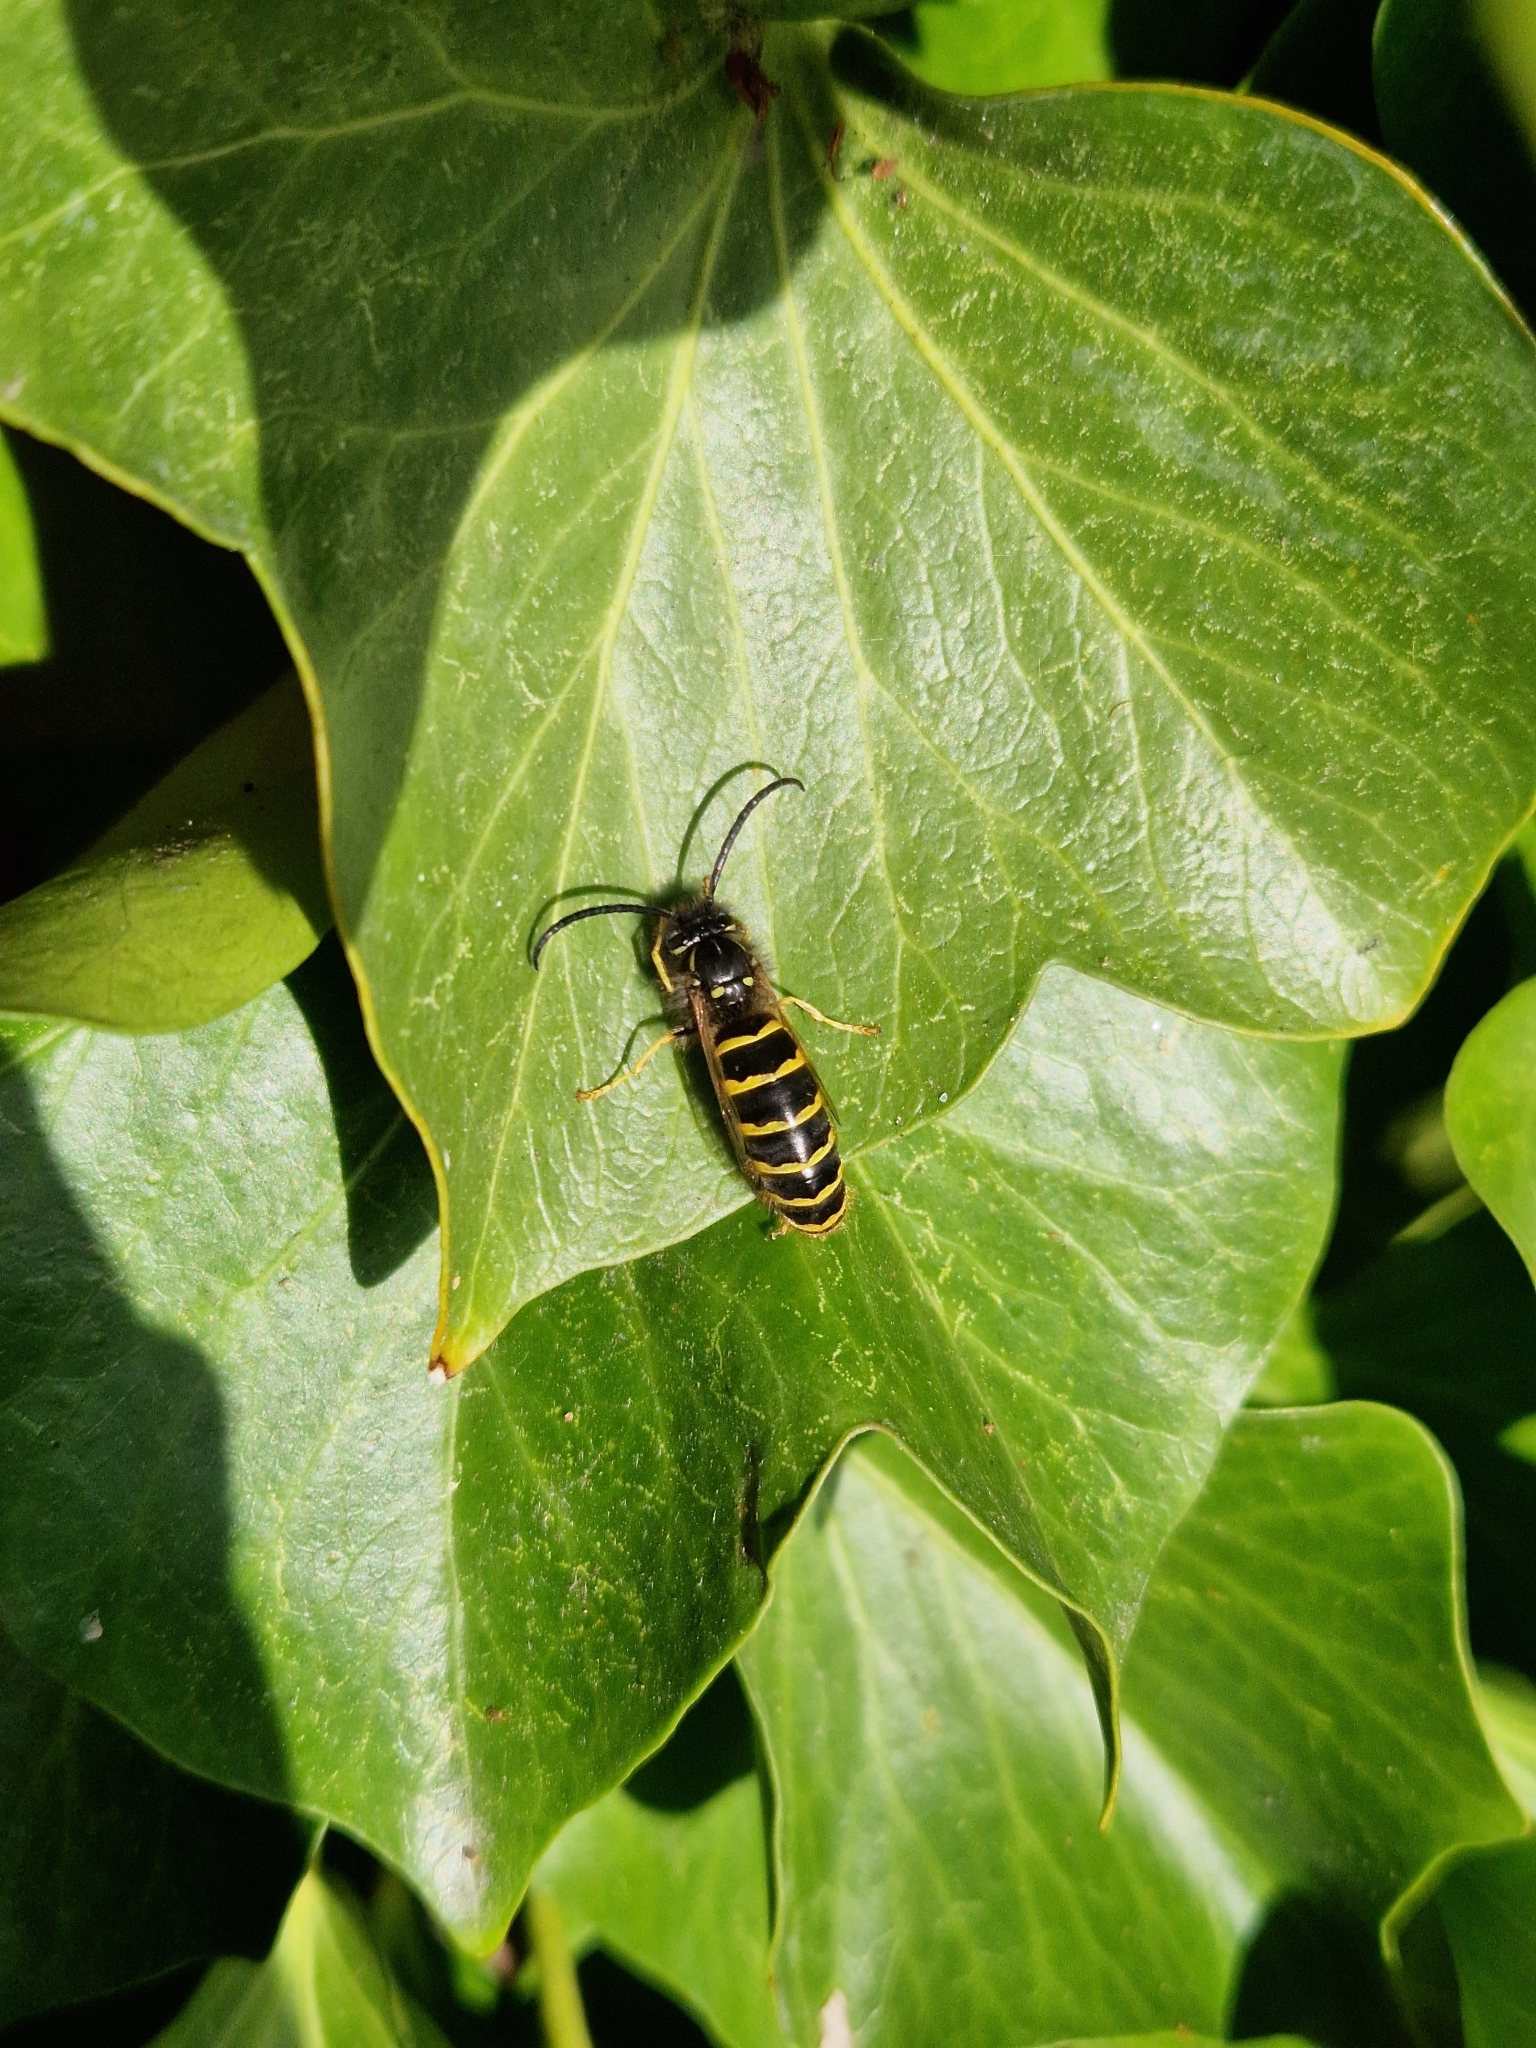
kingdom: Animalia
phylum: Arthropoda
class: Insecta
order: Hymenoptera
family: Vespidae
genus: Vespula
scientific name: Vespula vulgaris
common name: Common wasp
